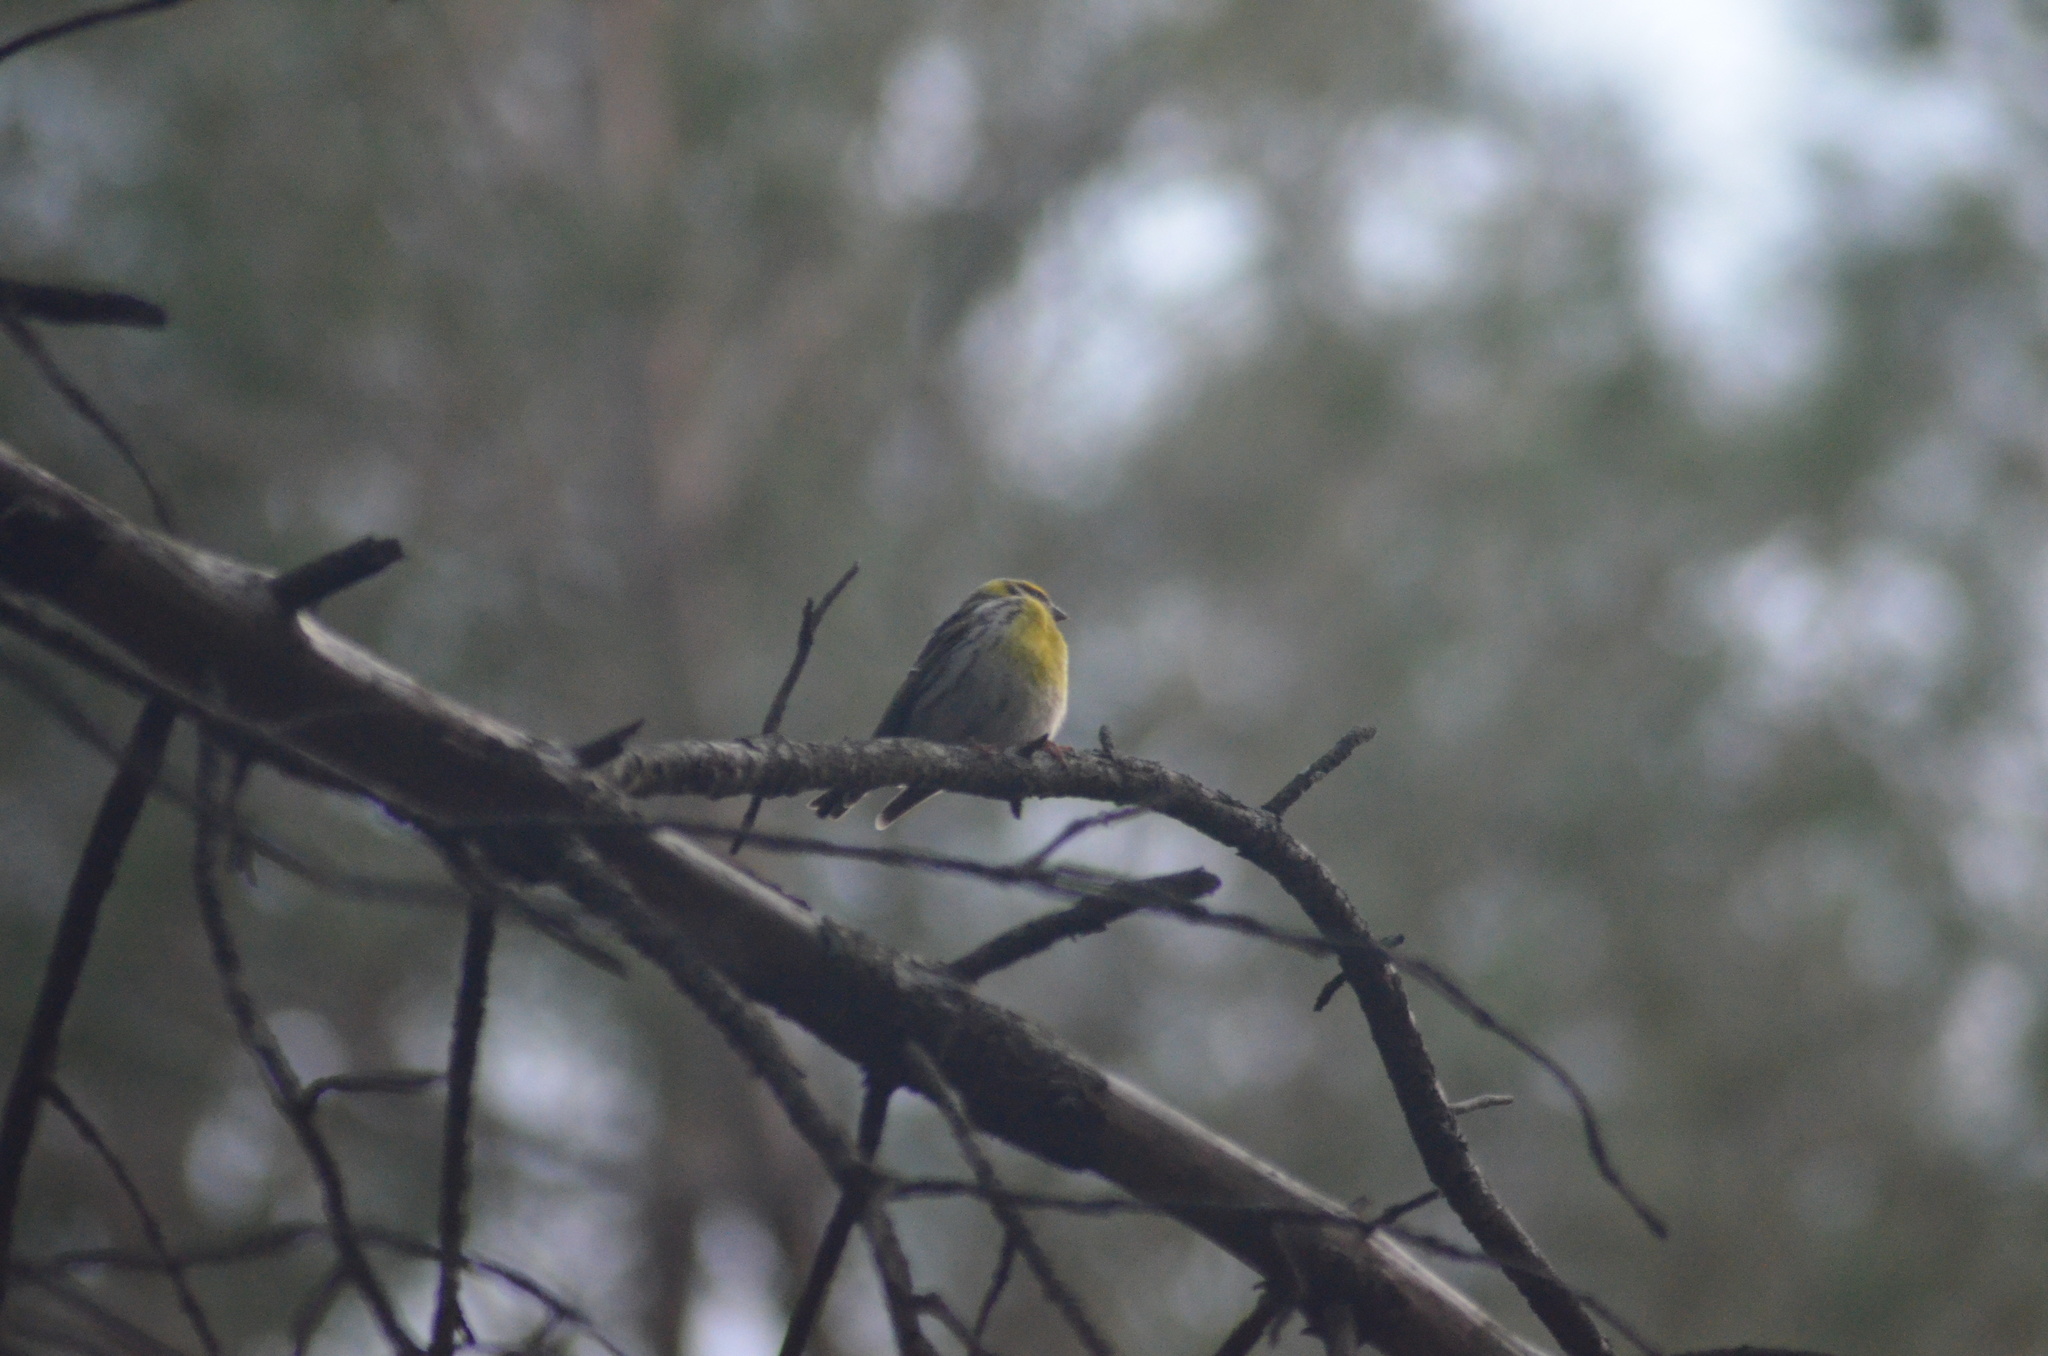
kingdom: Animalia
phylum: Chordata
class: Aves
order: Passeriformes
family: Fringillidae
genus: Serinus
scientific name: Serinus serinus
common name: European serin
